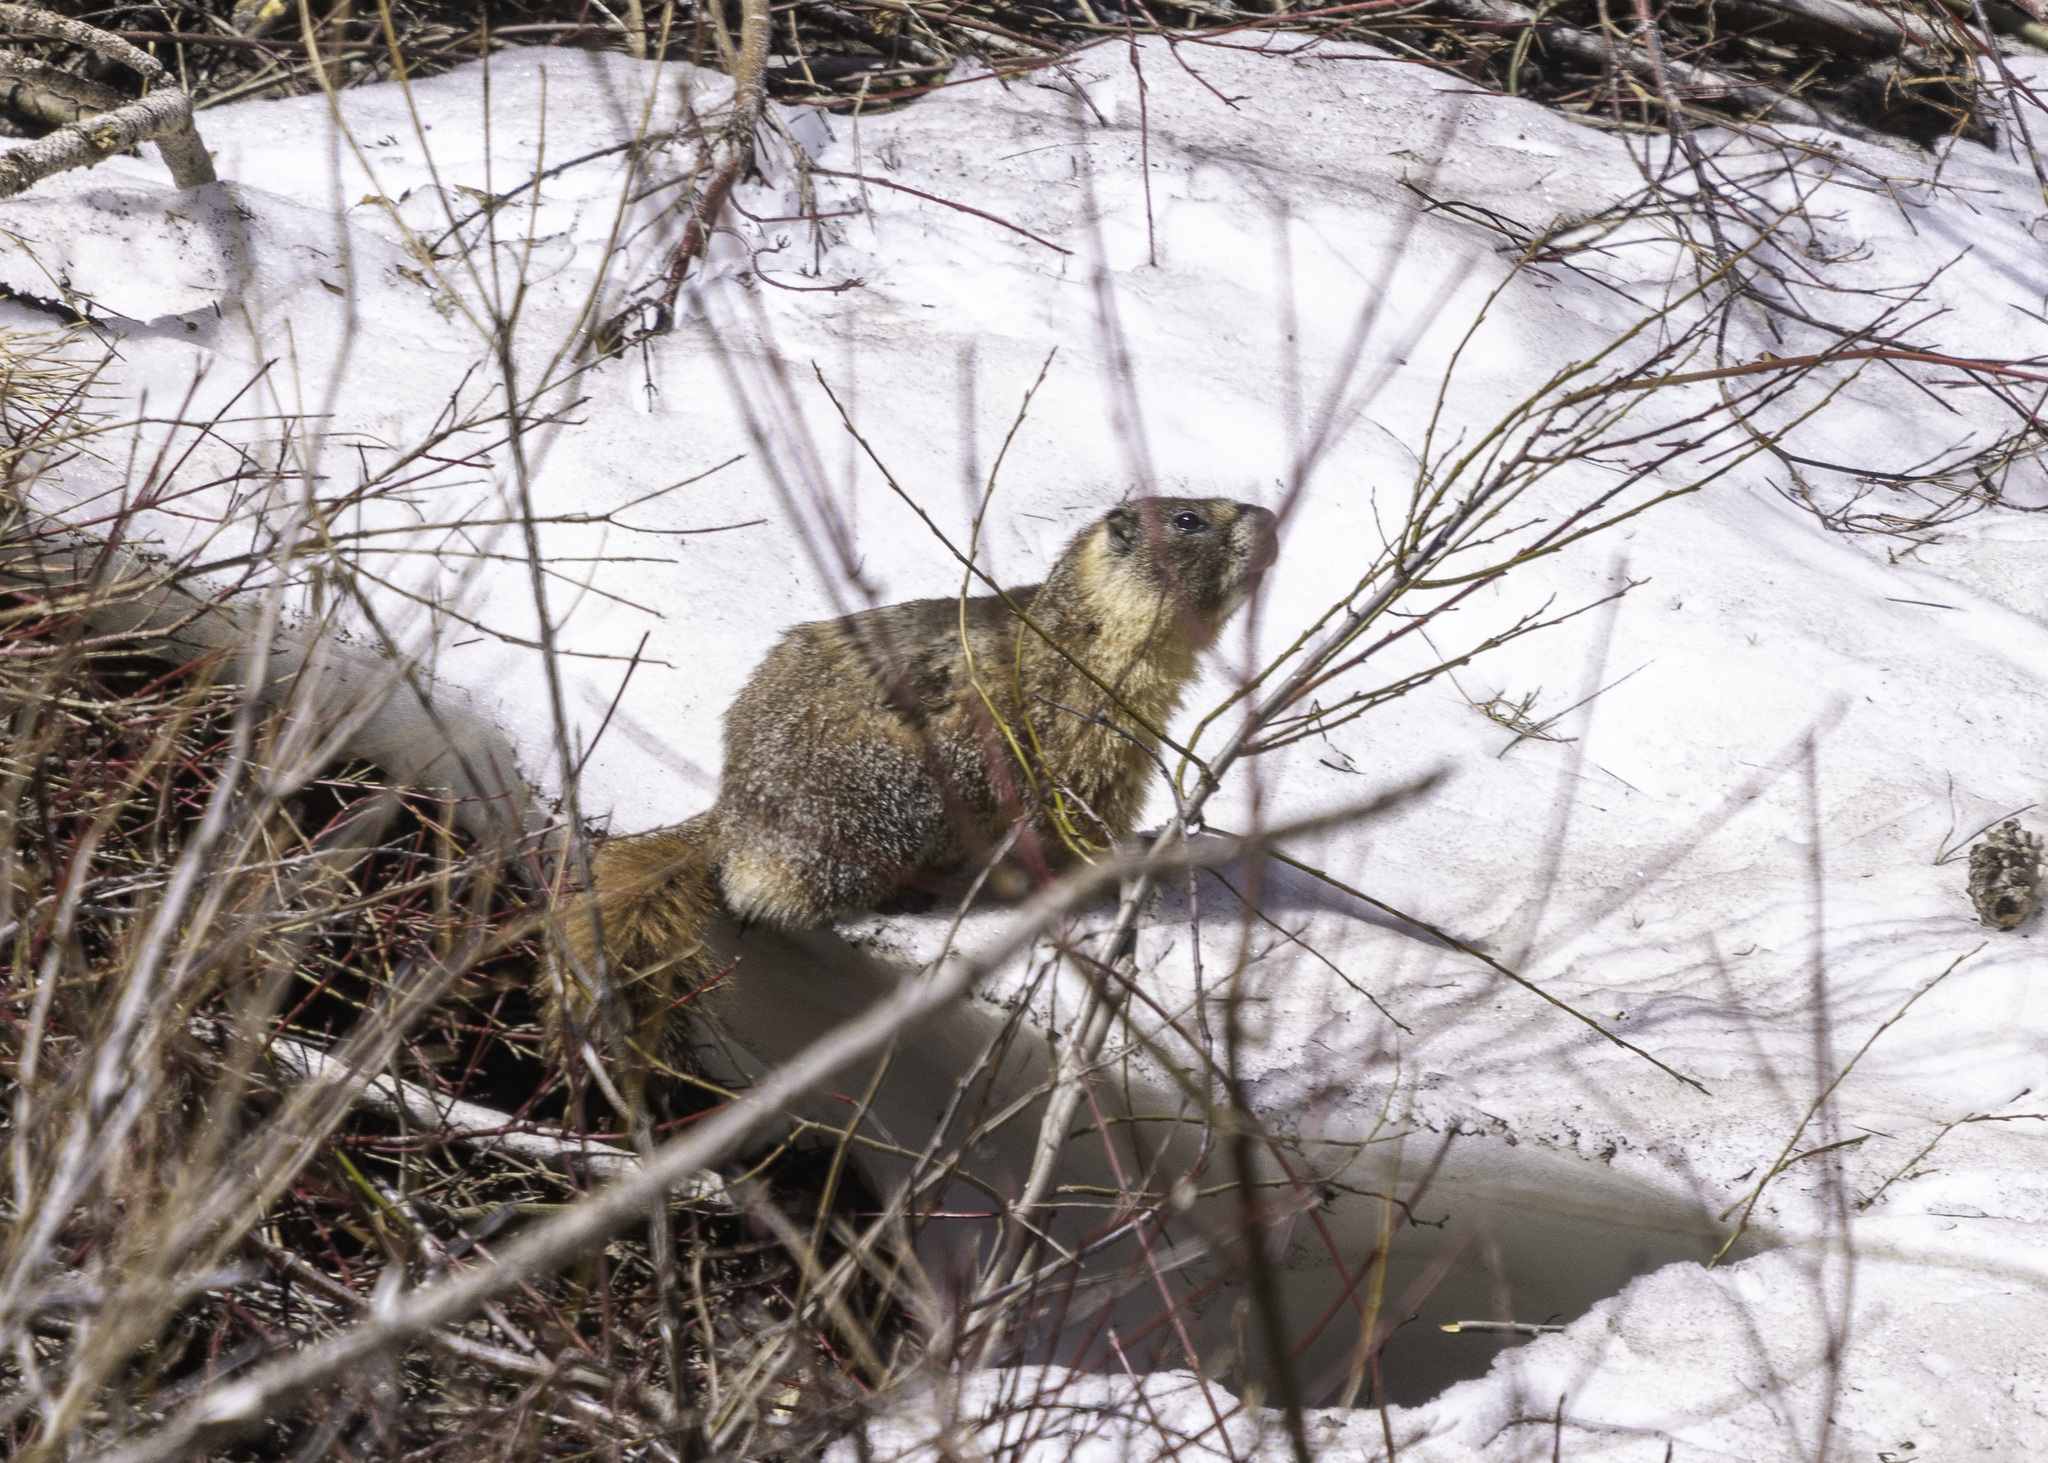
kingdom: Animalia
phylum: Chordata
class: Mammalia
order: Rodentia
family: Sciuridae
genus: Marmota
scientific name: Marmota flaviventris
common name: Yellow-bellied marmot
